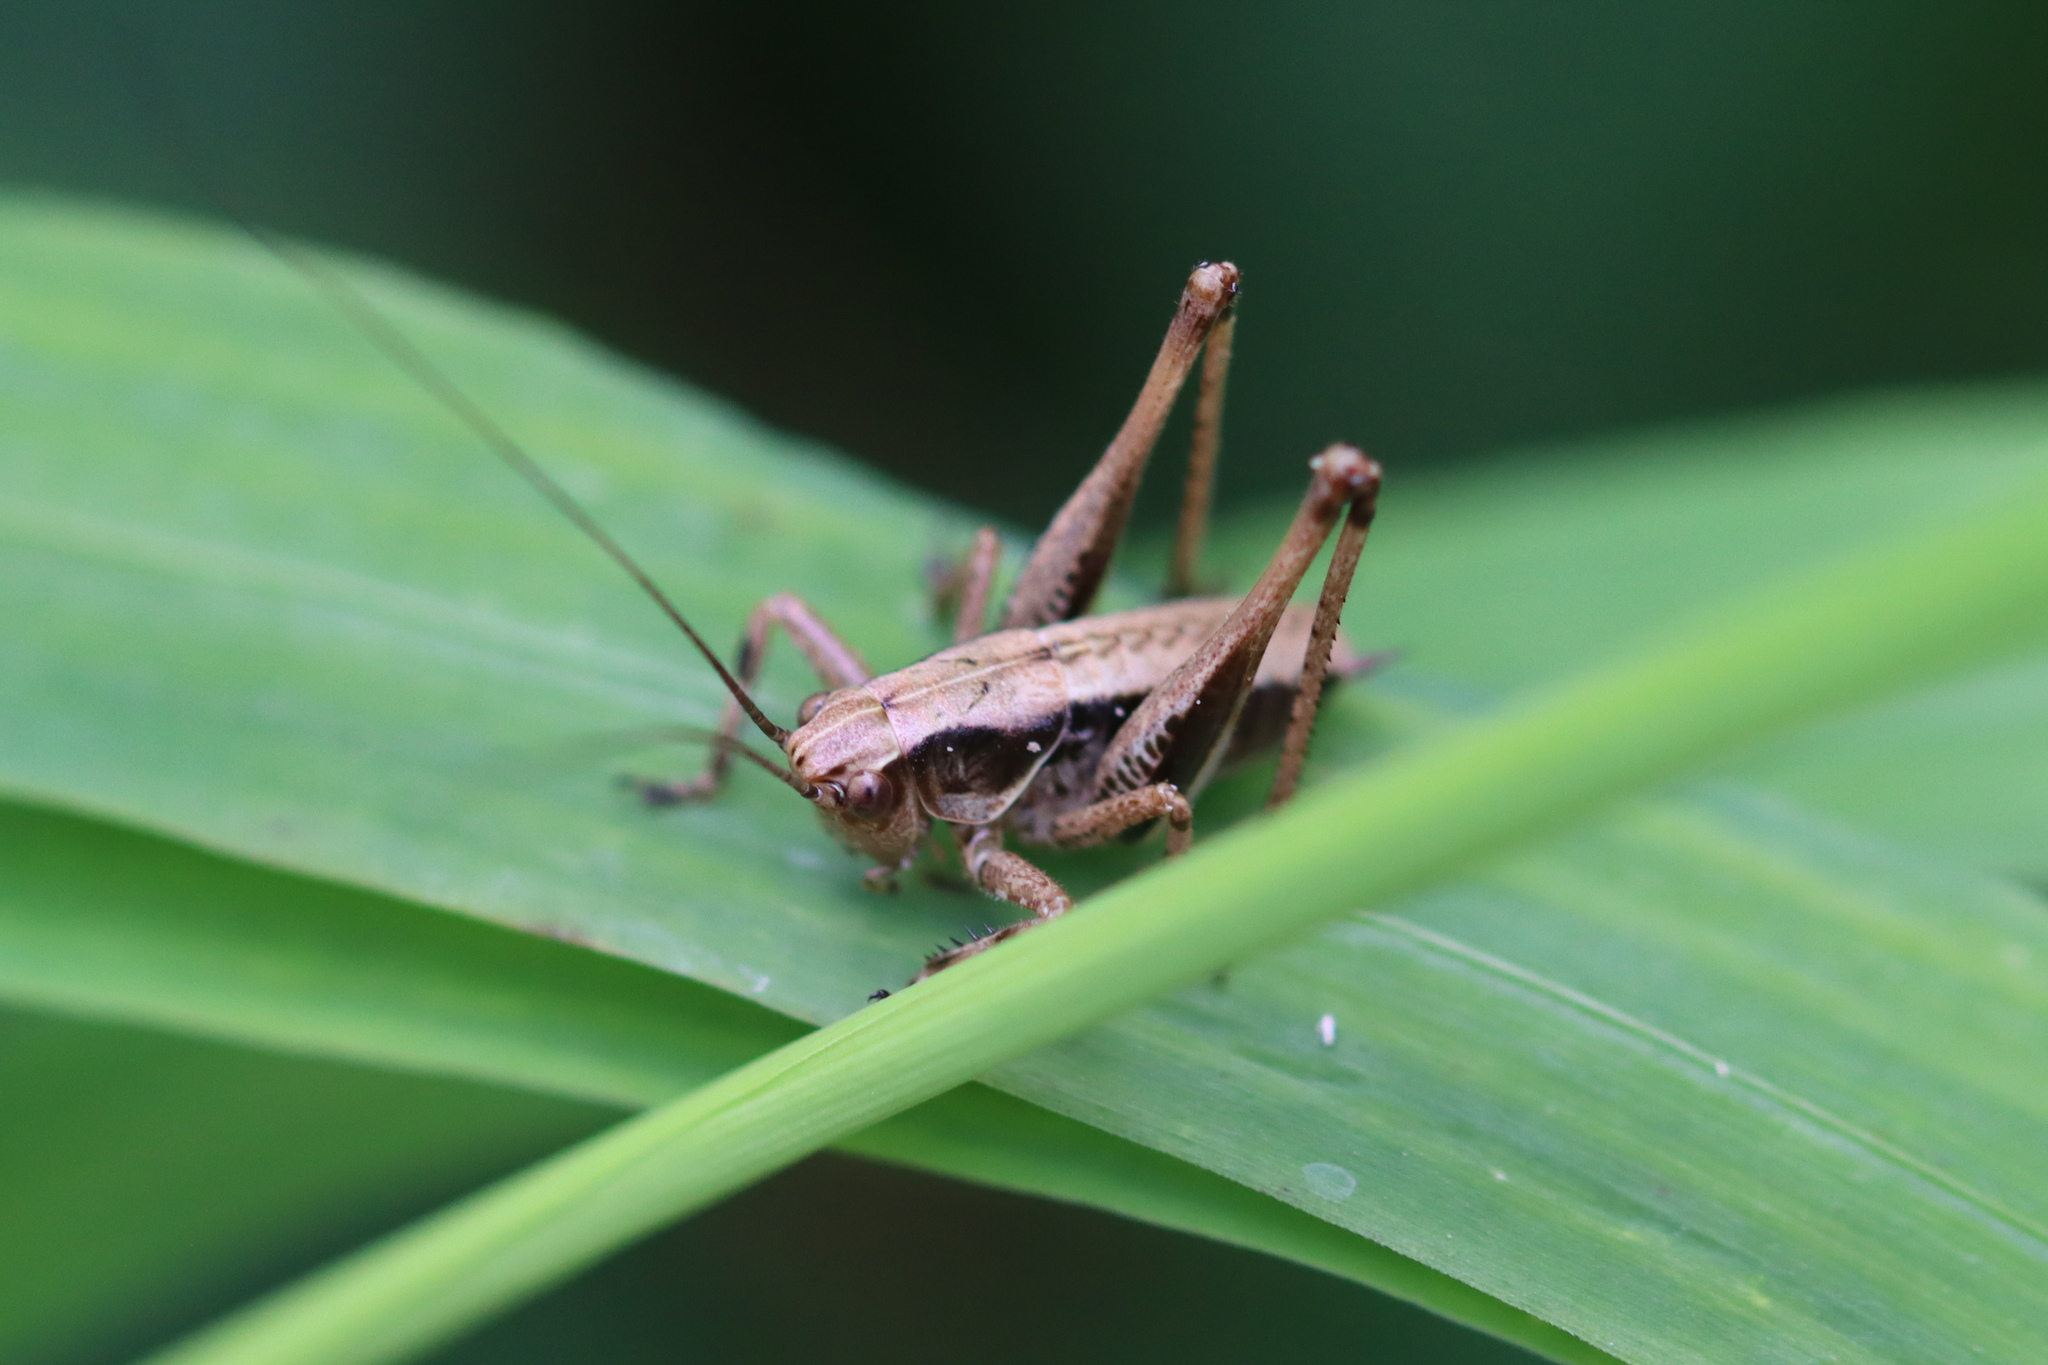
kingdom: Animalia
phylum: Arthropoda
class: Insecta
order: Orthoptera
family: Tettigoniidae
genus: Pholidoptera
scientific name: Pholidoptera griseoaptera
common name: Dark bush-cricket
